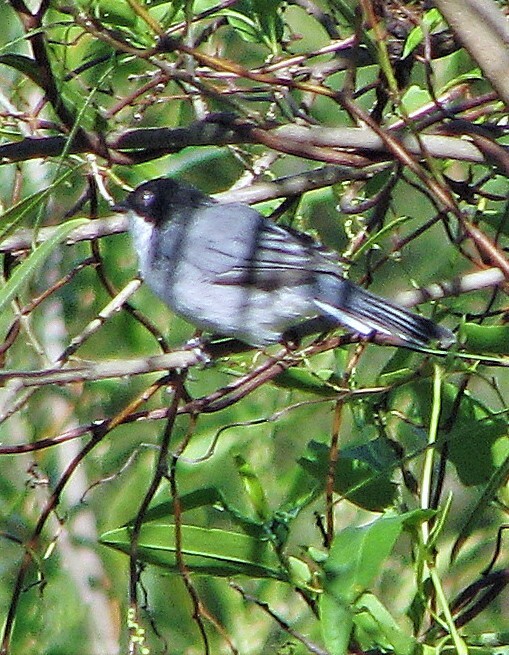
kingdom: Animalia
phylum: Chordata
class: Aves
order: Passeriformes
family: Thraupidae
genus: Microspingus
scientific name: Microspingus melanoleucus
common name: Black-capped warbling-finch
